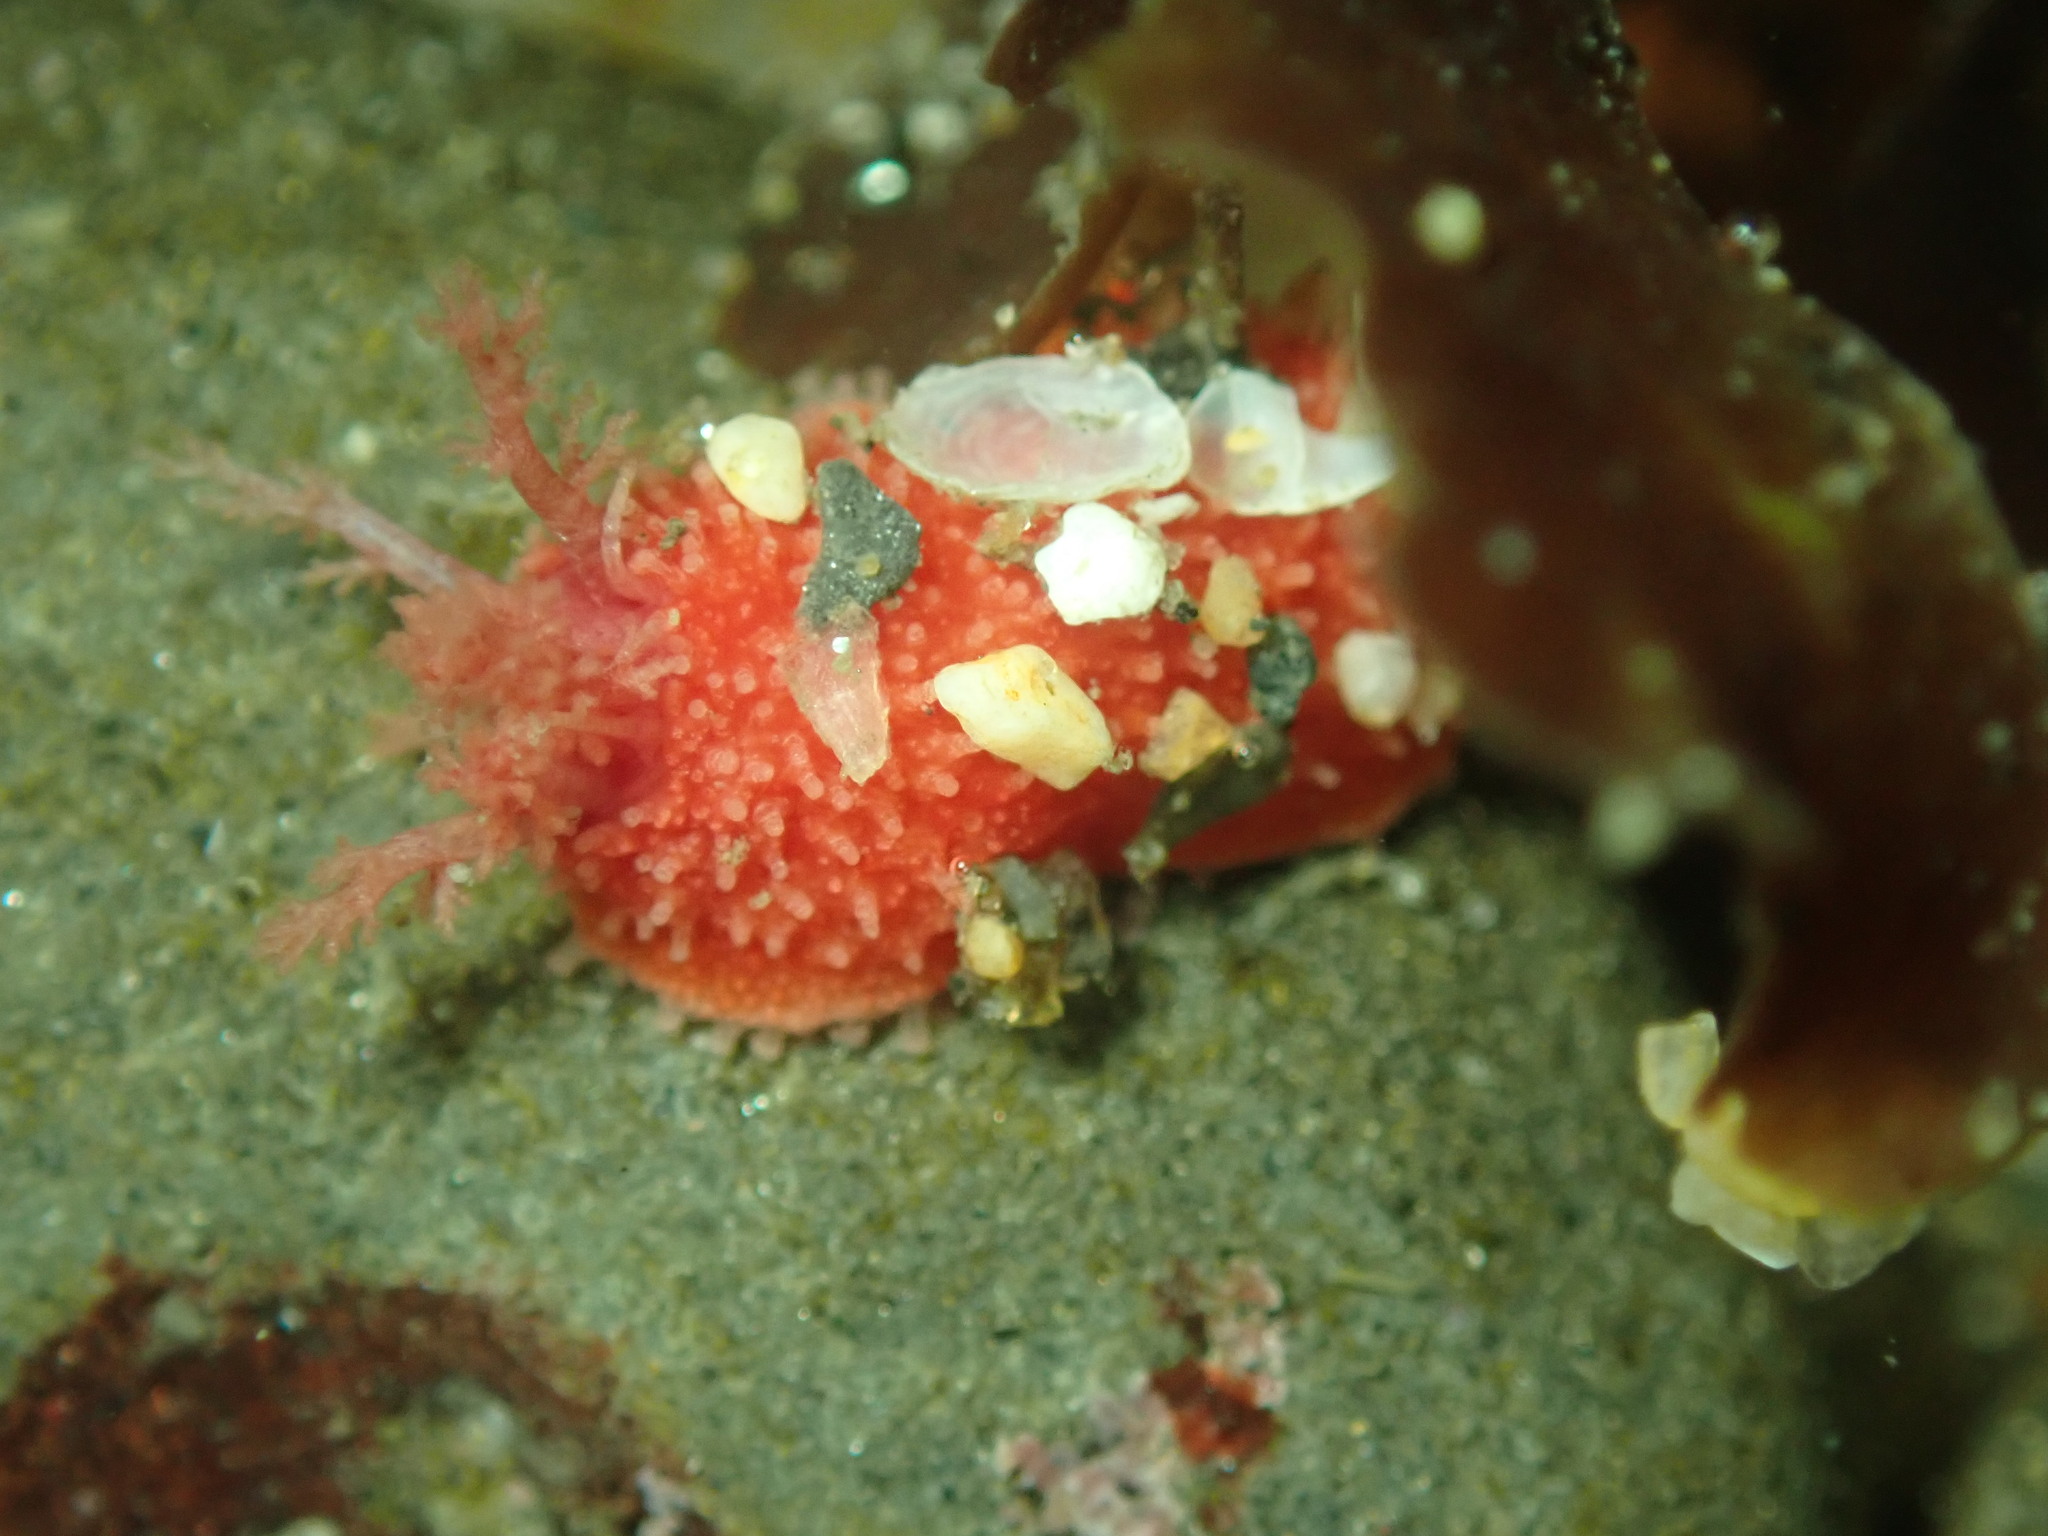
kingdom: Animalia
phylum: Echinodermata
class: Holothuroidea
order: Dendrochirotida
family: Psolidae
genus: Lissothuria
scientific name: Lissothuria nutriens
